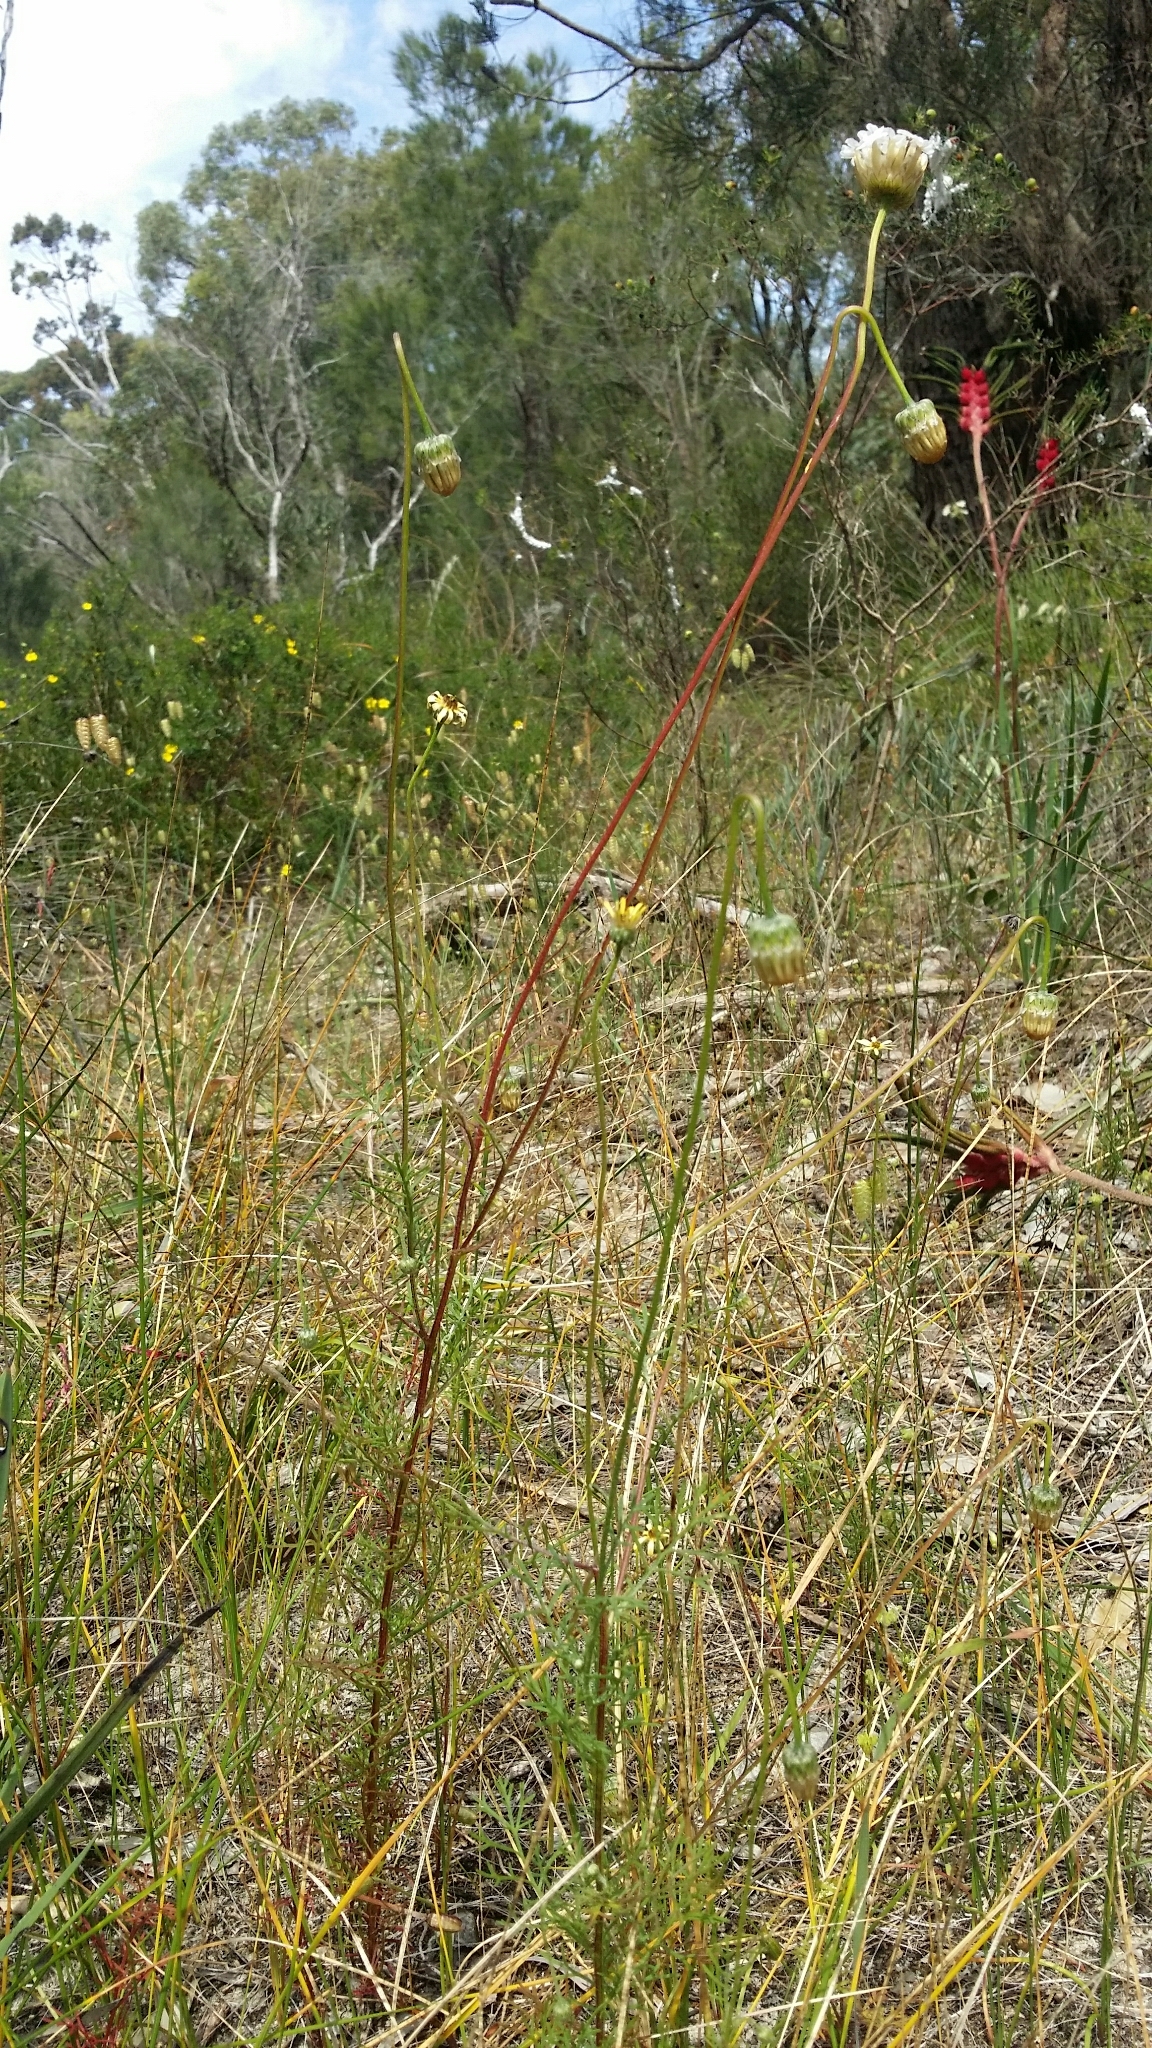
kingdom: Plantae
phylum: Tracheophyta
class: Magnoliopsida
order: Asterales
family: Asteraceae
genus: Ursinia
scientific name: Ursinia anthemoides
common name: Ursinia
